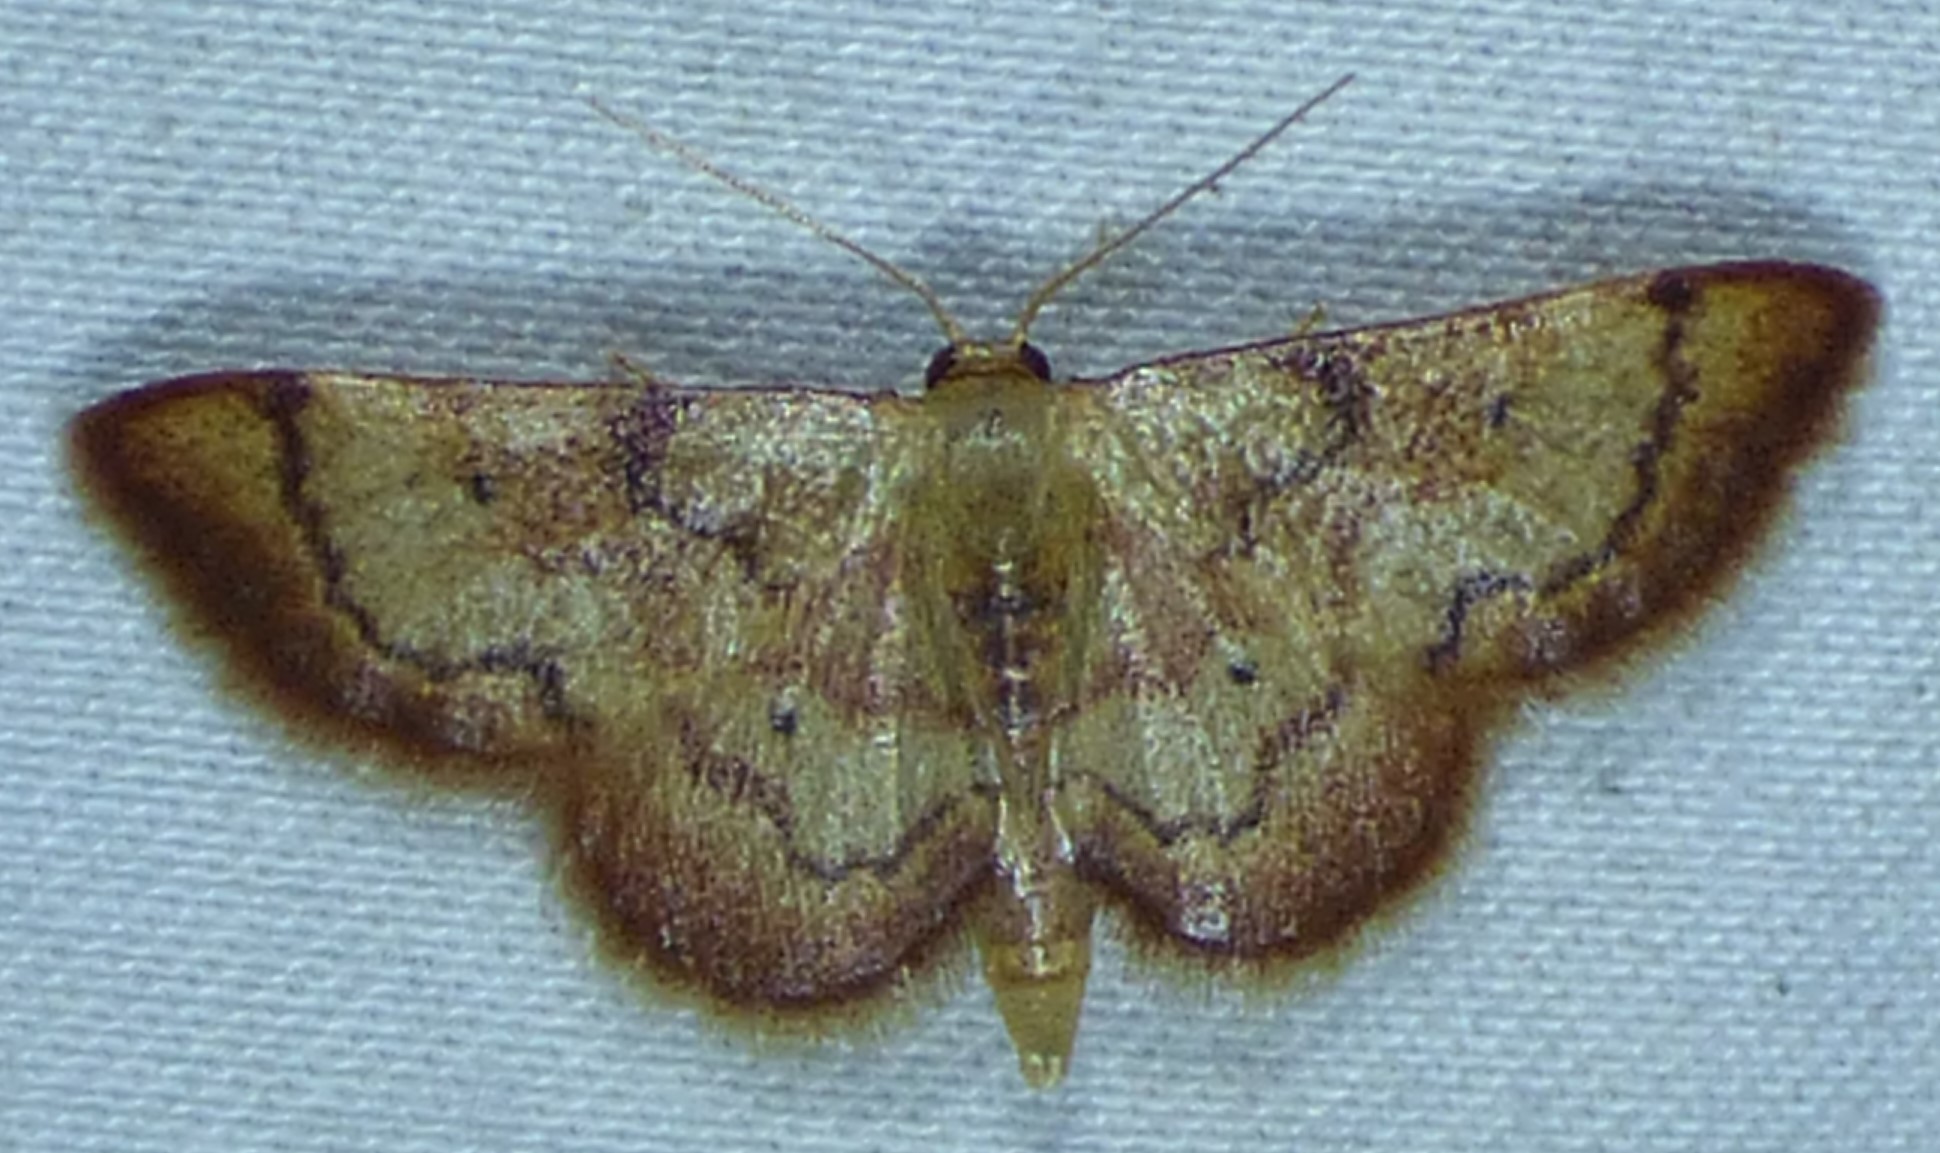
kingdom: Animalia
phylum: Arthropoda
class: Insecta
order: Lepidoptera
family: Geometridae
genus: Idaea
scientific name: Idaea demissaria
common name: Red-bordered wave
